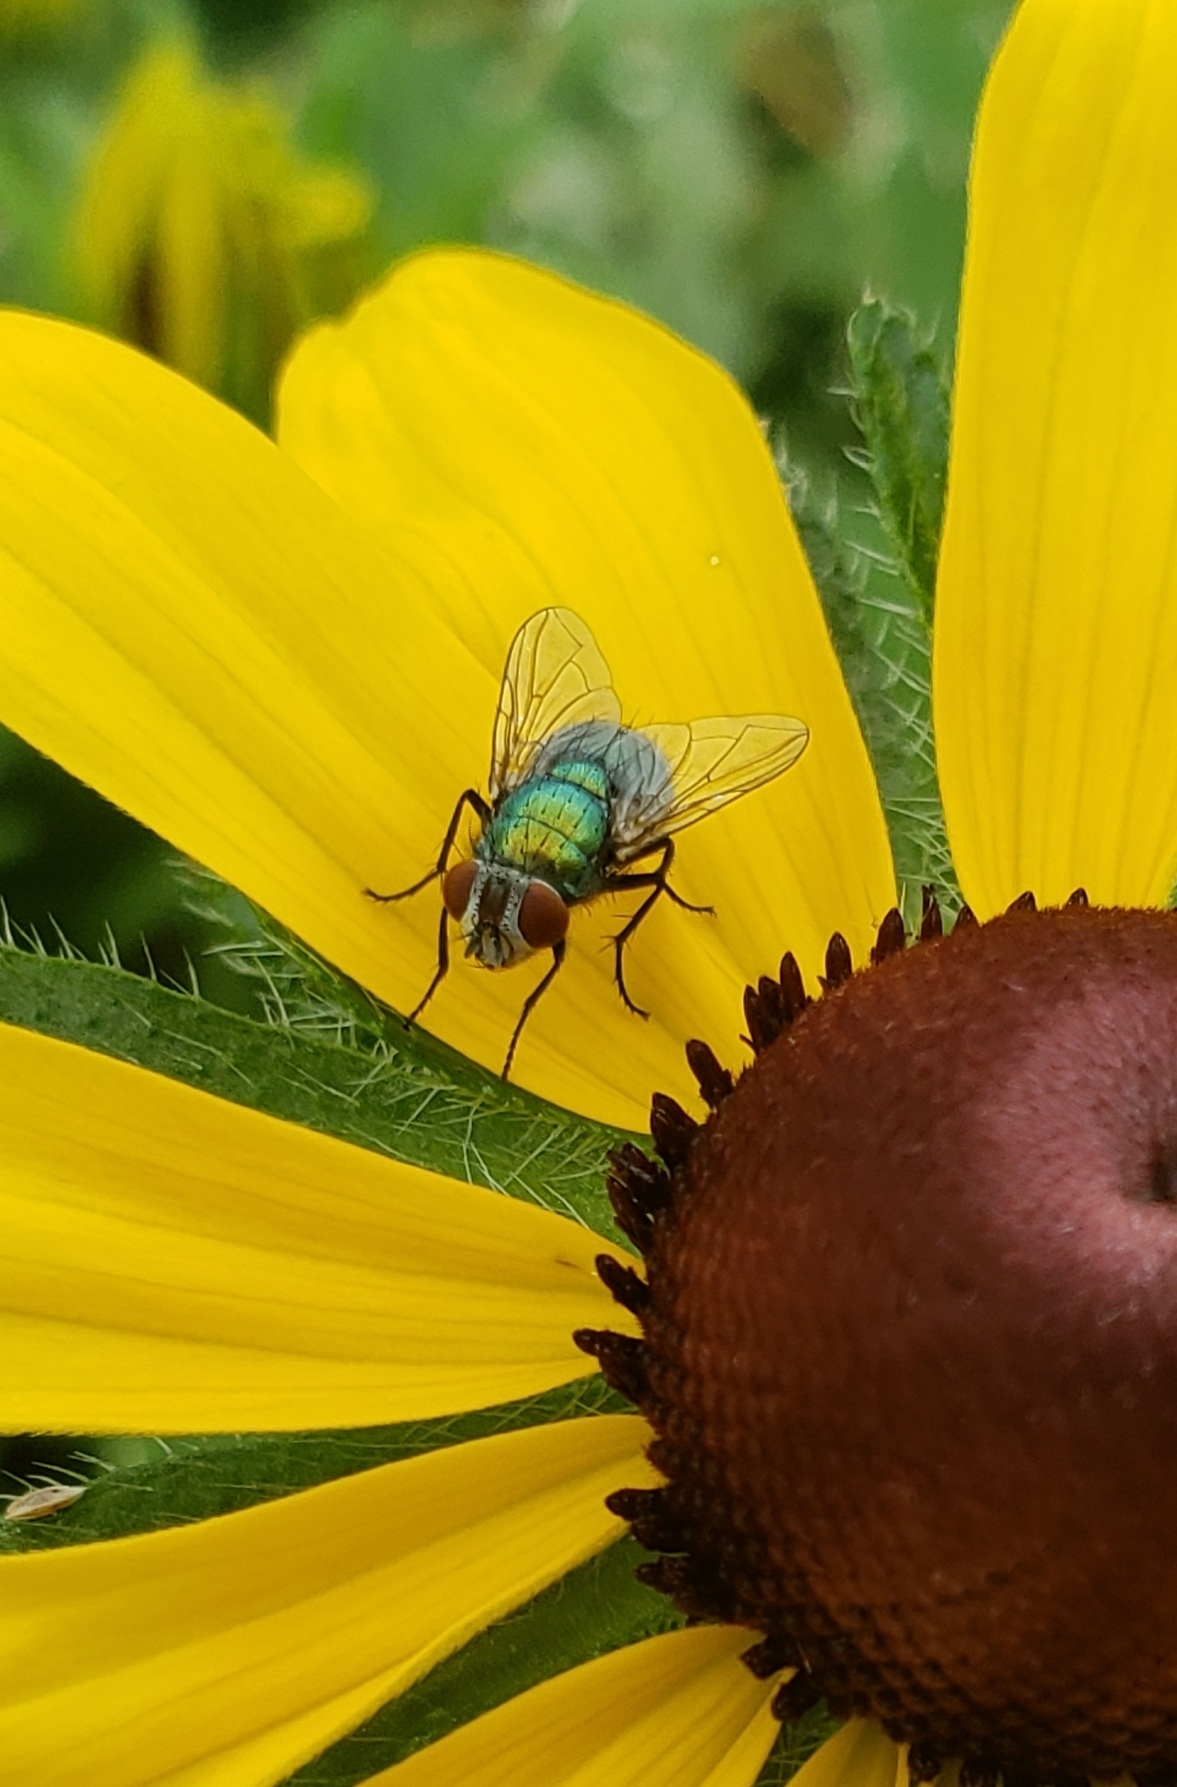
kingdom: Animalia
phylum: Arthropoda
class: Insecta
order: Diptera
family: Calliphoridae
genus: Lucilia
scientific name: Lucilia sericata
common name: Blow fly
